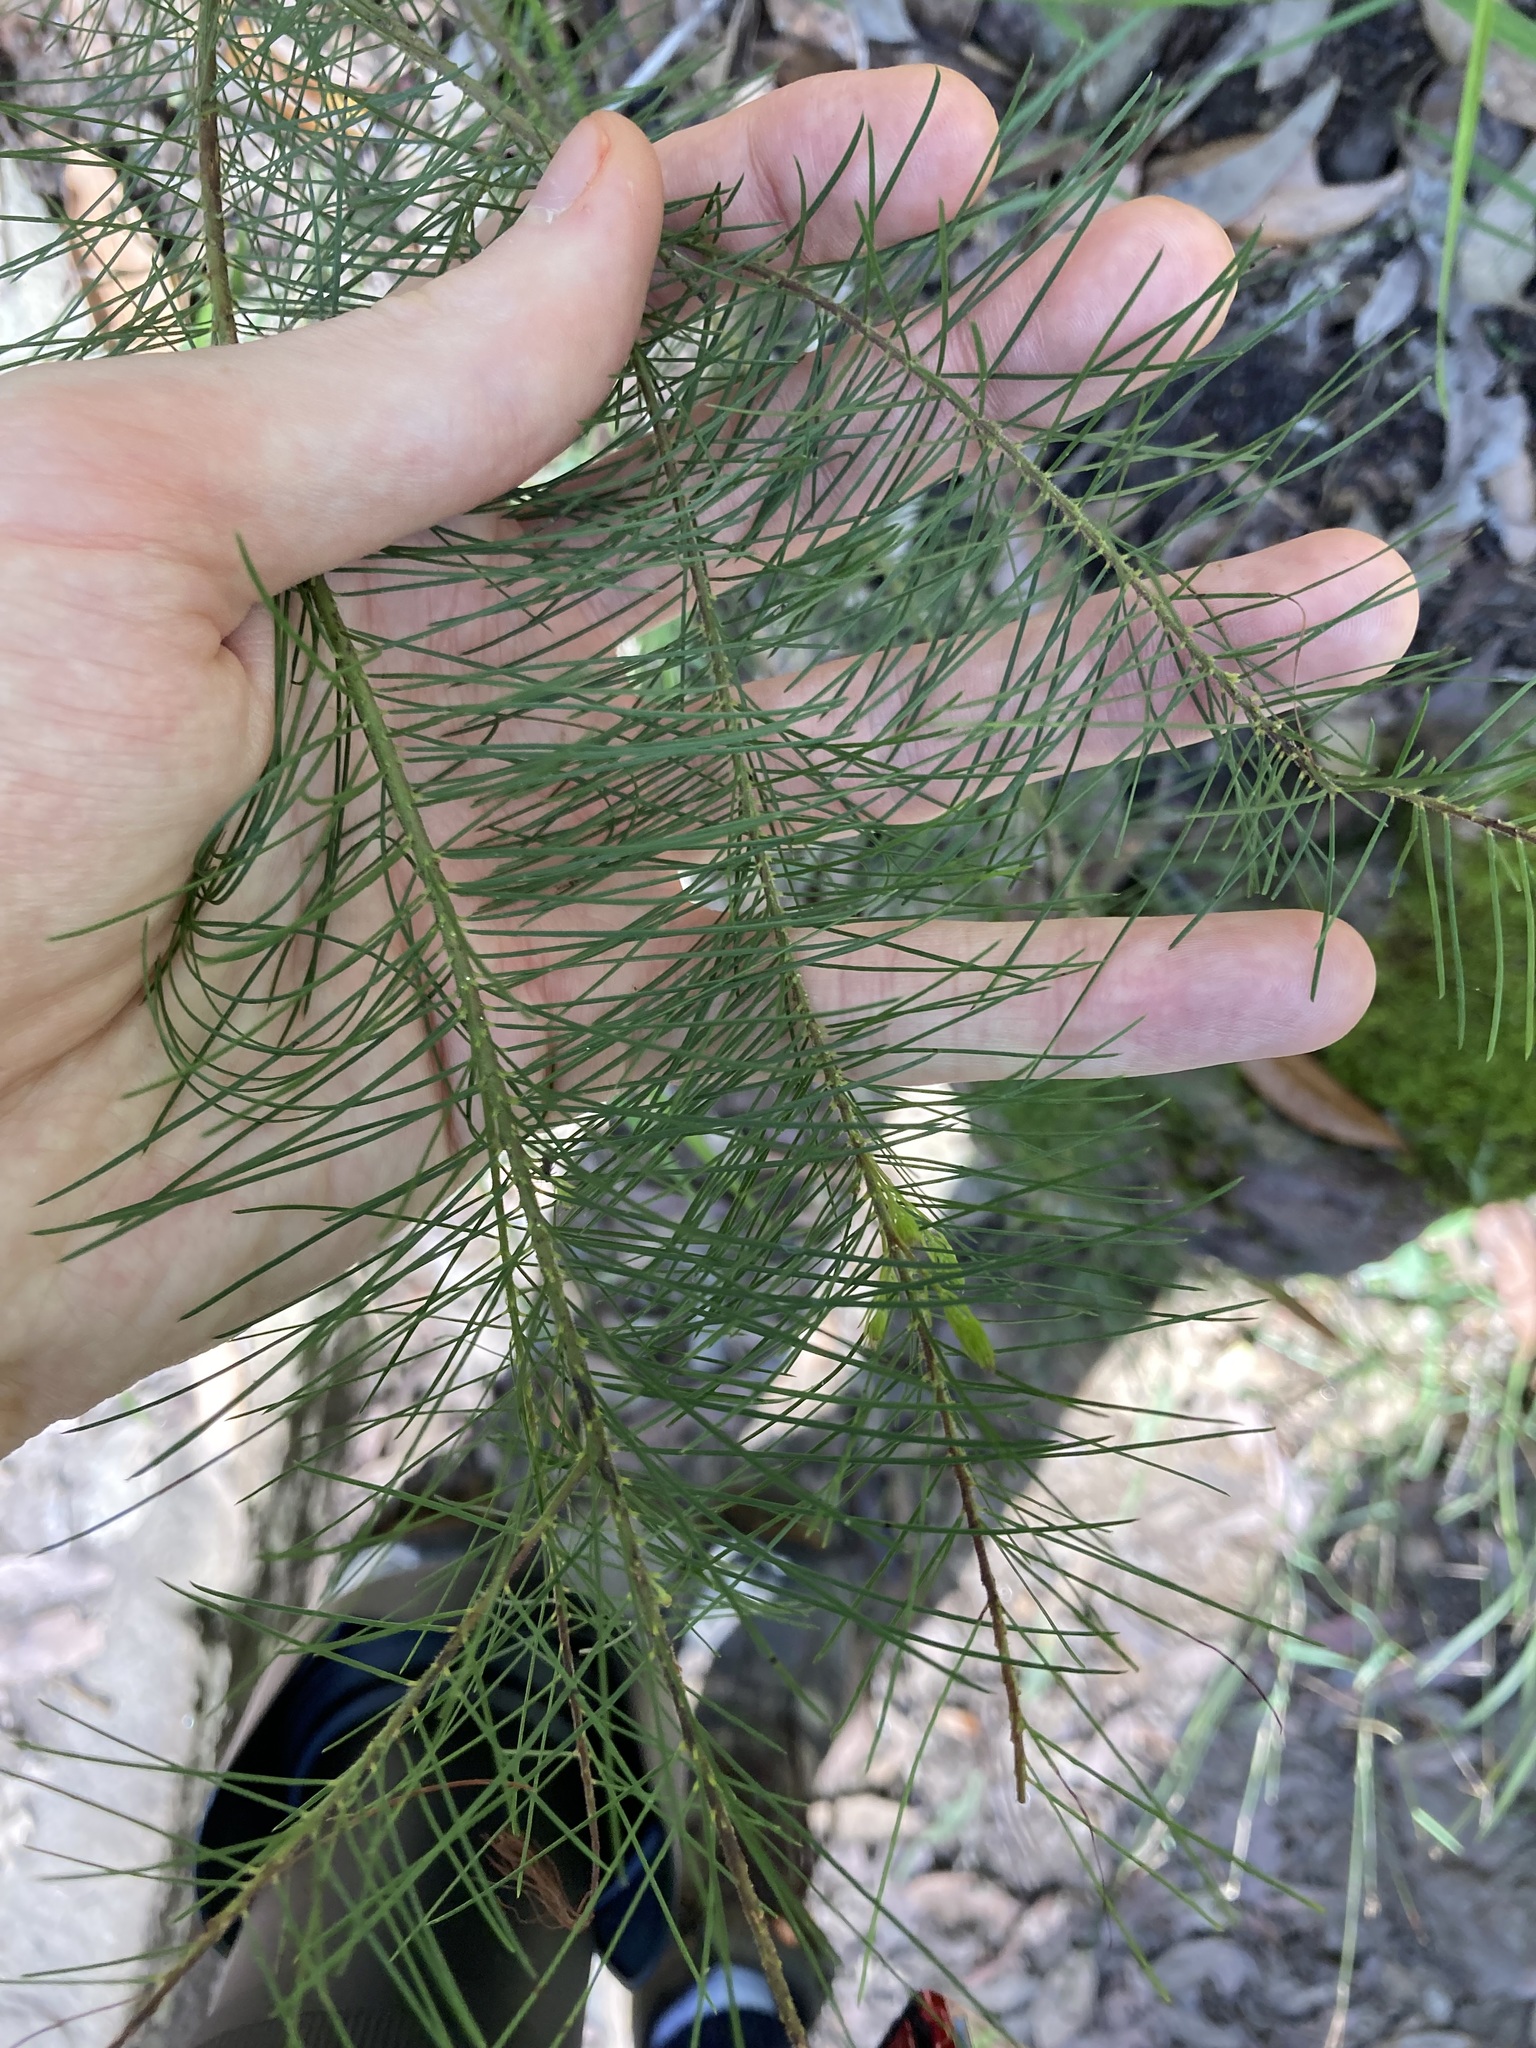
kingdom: Plantae
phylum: Tracheophyta
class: Magnoliopsida
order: Proteales
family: Proteaceae
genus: Persoonia
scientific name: Persoonia pinifolia
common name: Pine-leaf geebung
